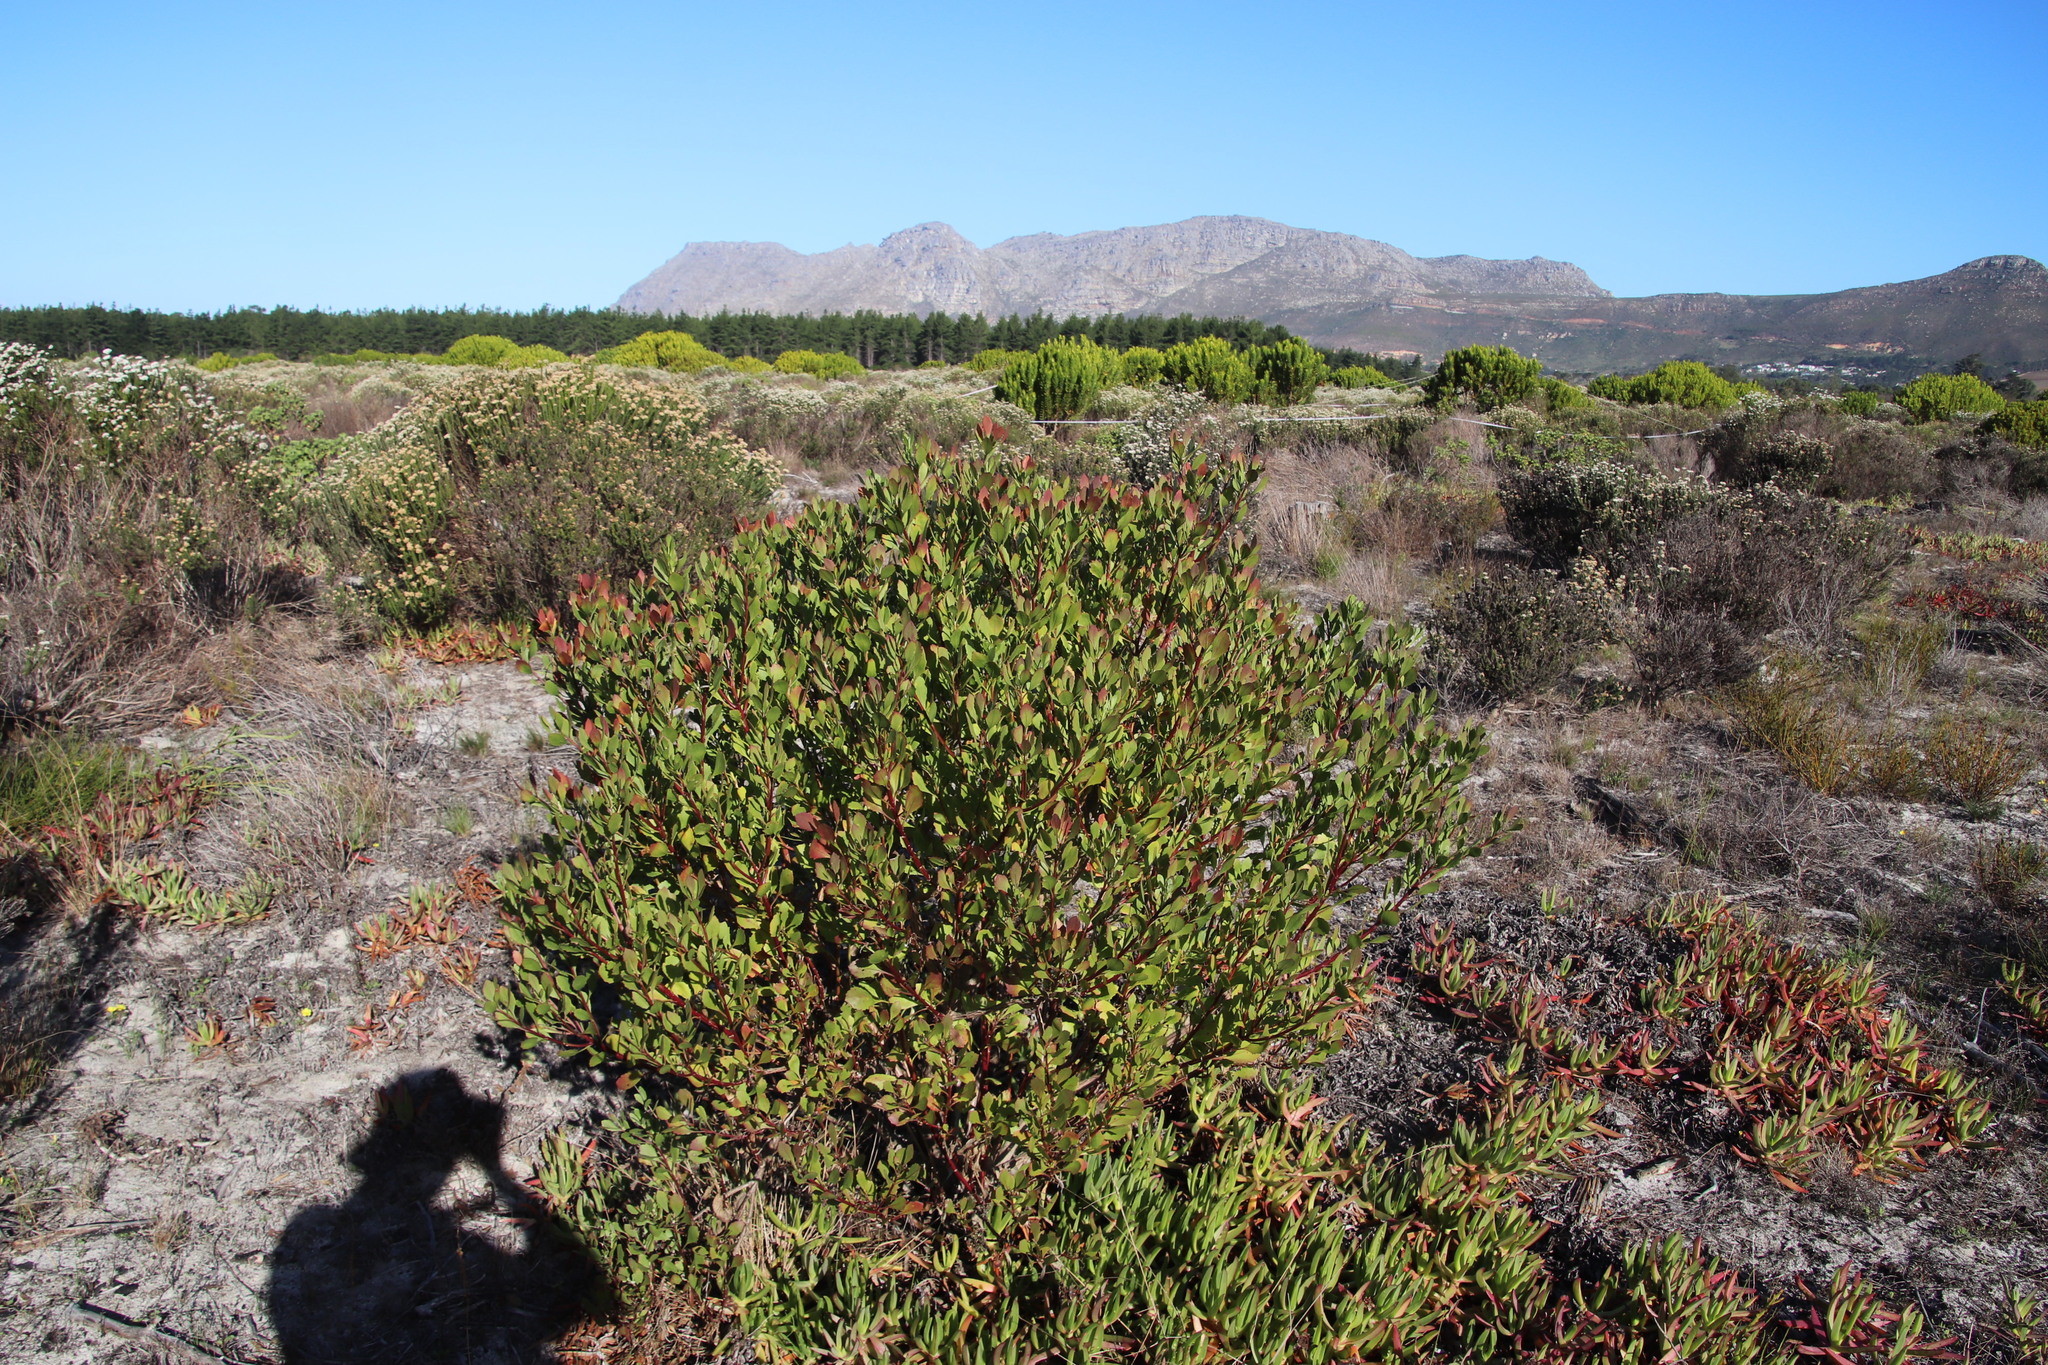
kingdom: Plantae
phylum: Tracheophyta
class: Magnoliopsida
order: Asterales
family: Asteraceae
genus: Osteospermum
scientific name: Osteospermum moniliferum
